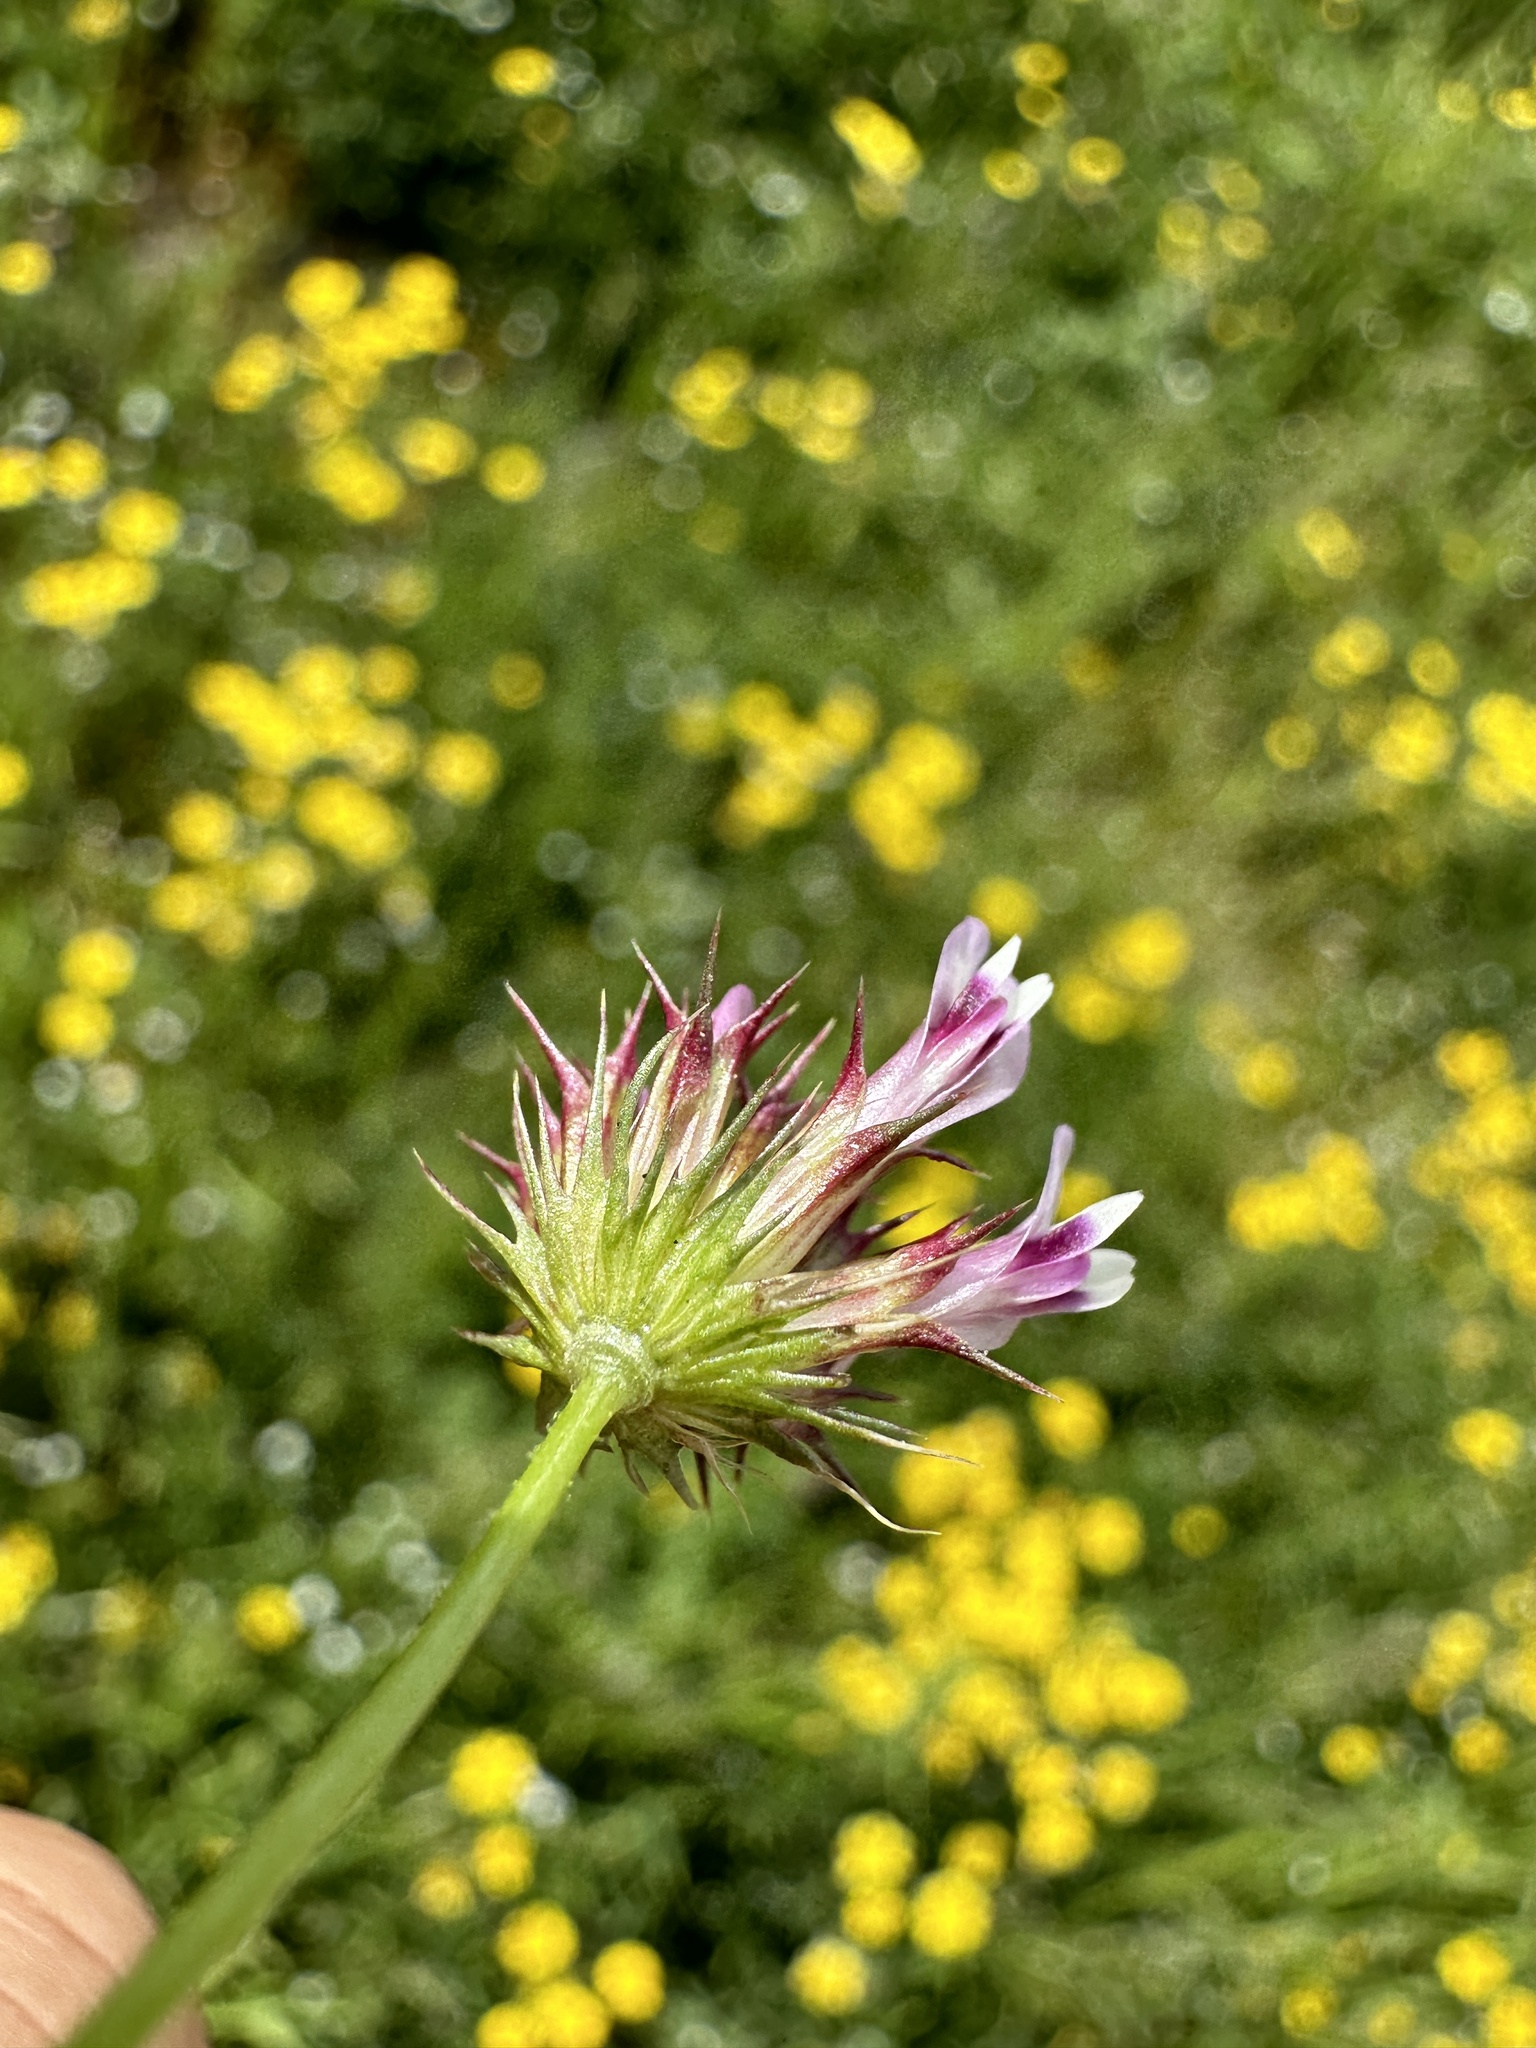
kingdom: Plantae
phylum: Tracheophyta
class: Magnoliopsida
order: Fabales
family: Fabaceae
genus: Trifolium
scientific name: Trifolium willdenovii
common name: Tomcat clover
